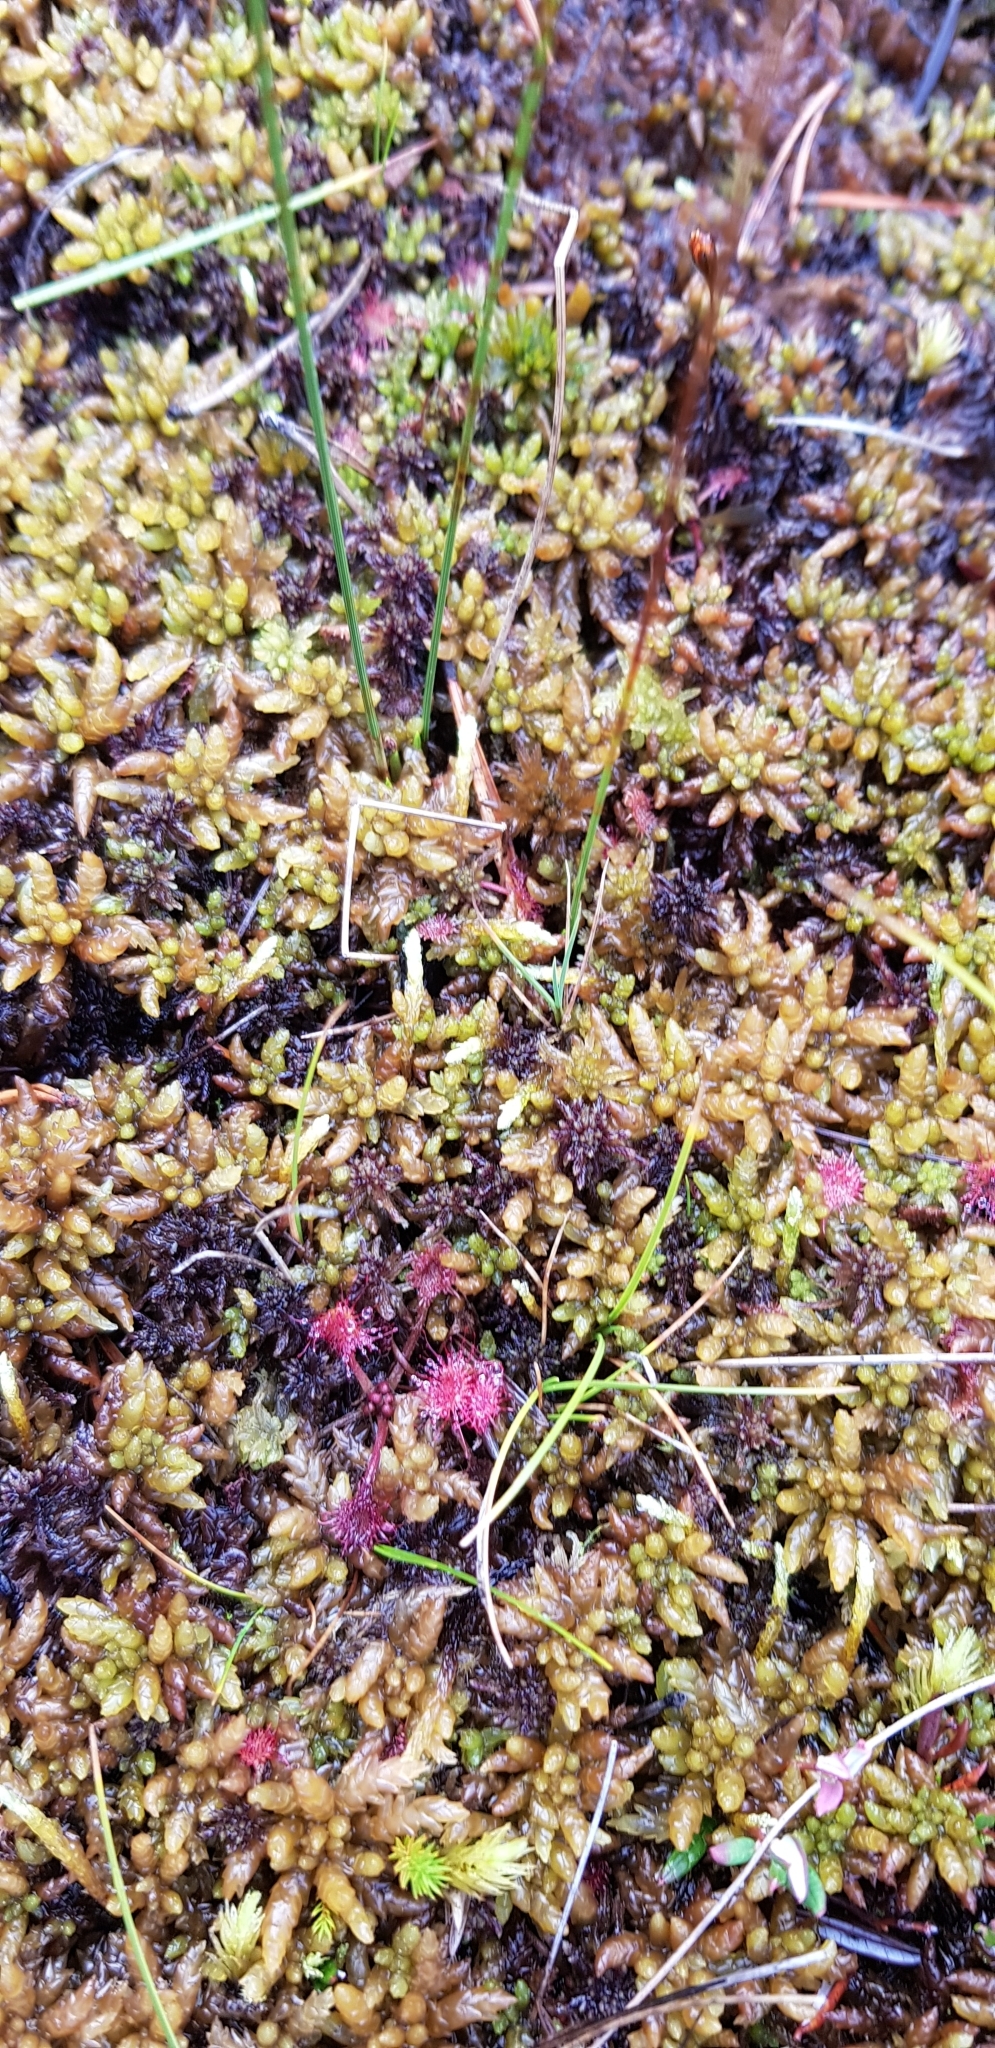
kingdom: Plantae
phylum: Tracheophyta
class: Magnoliopsida
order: Caryophyllales
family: Droseraceae
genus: Drosera
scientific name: Drosera rotundifolia
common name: Round-leaved sundew
